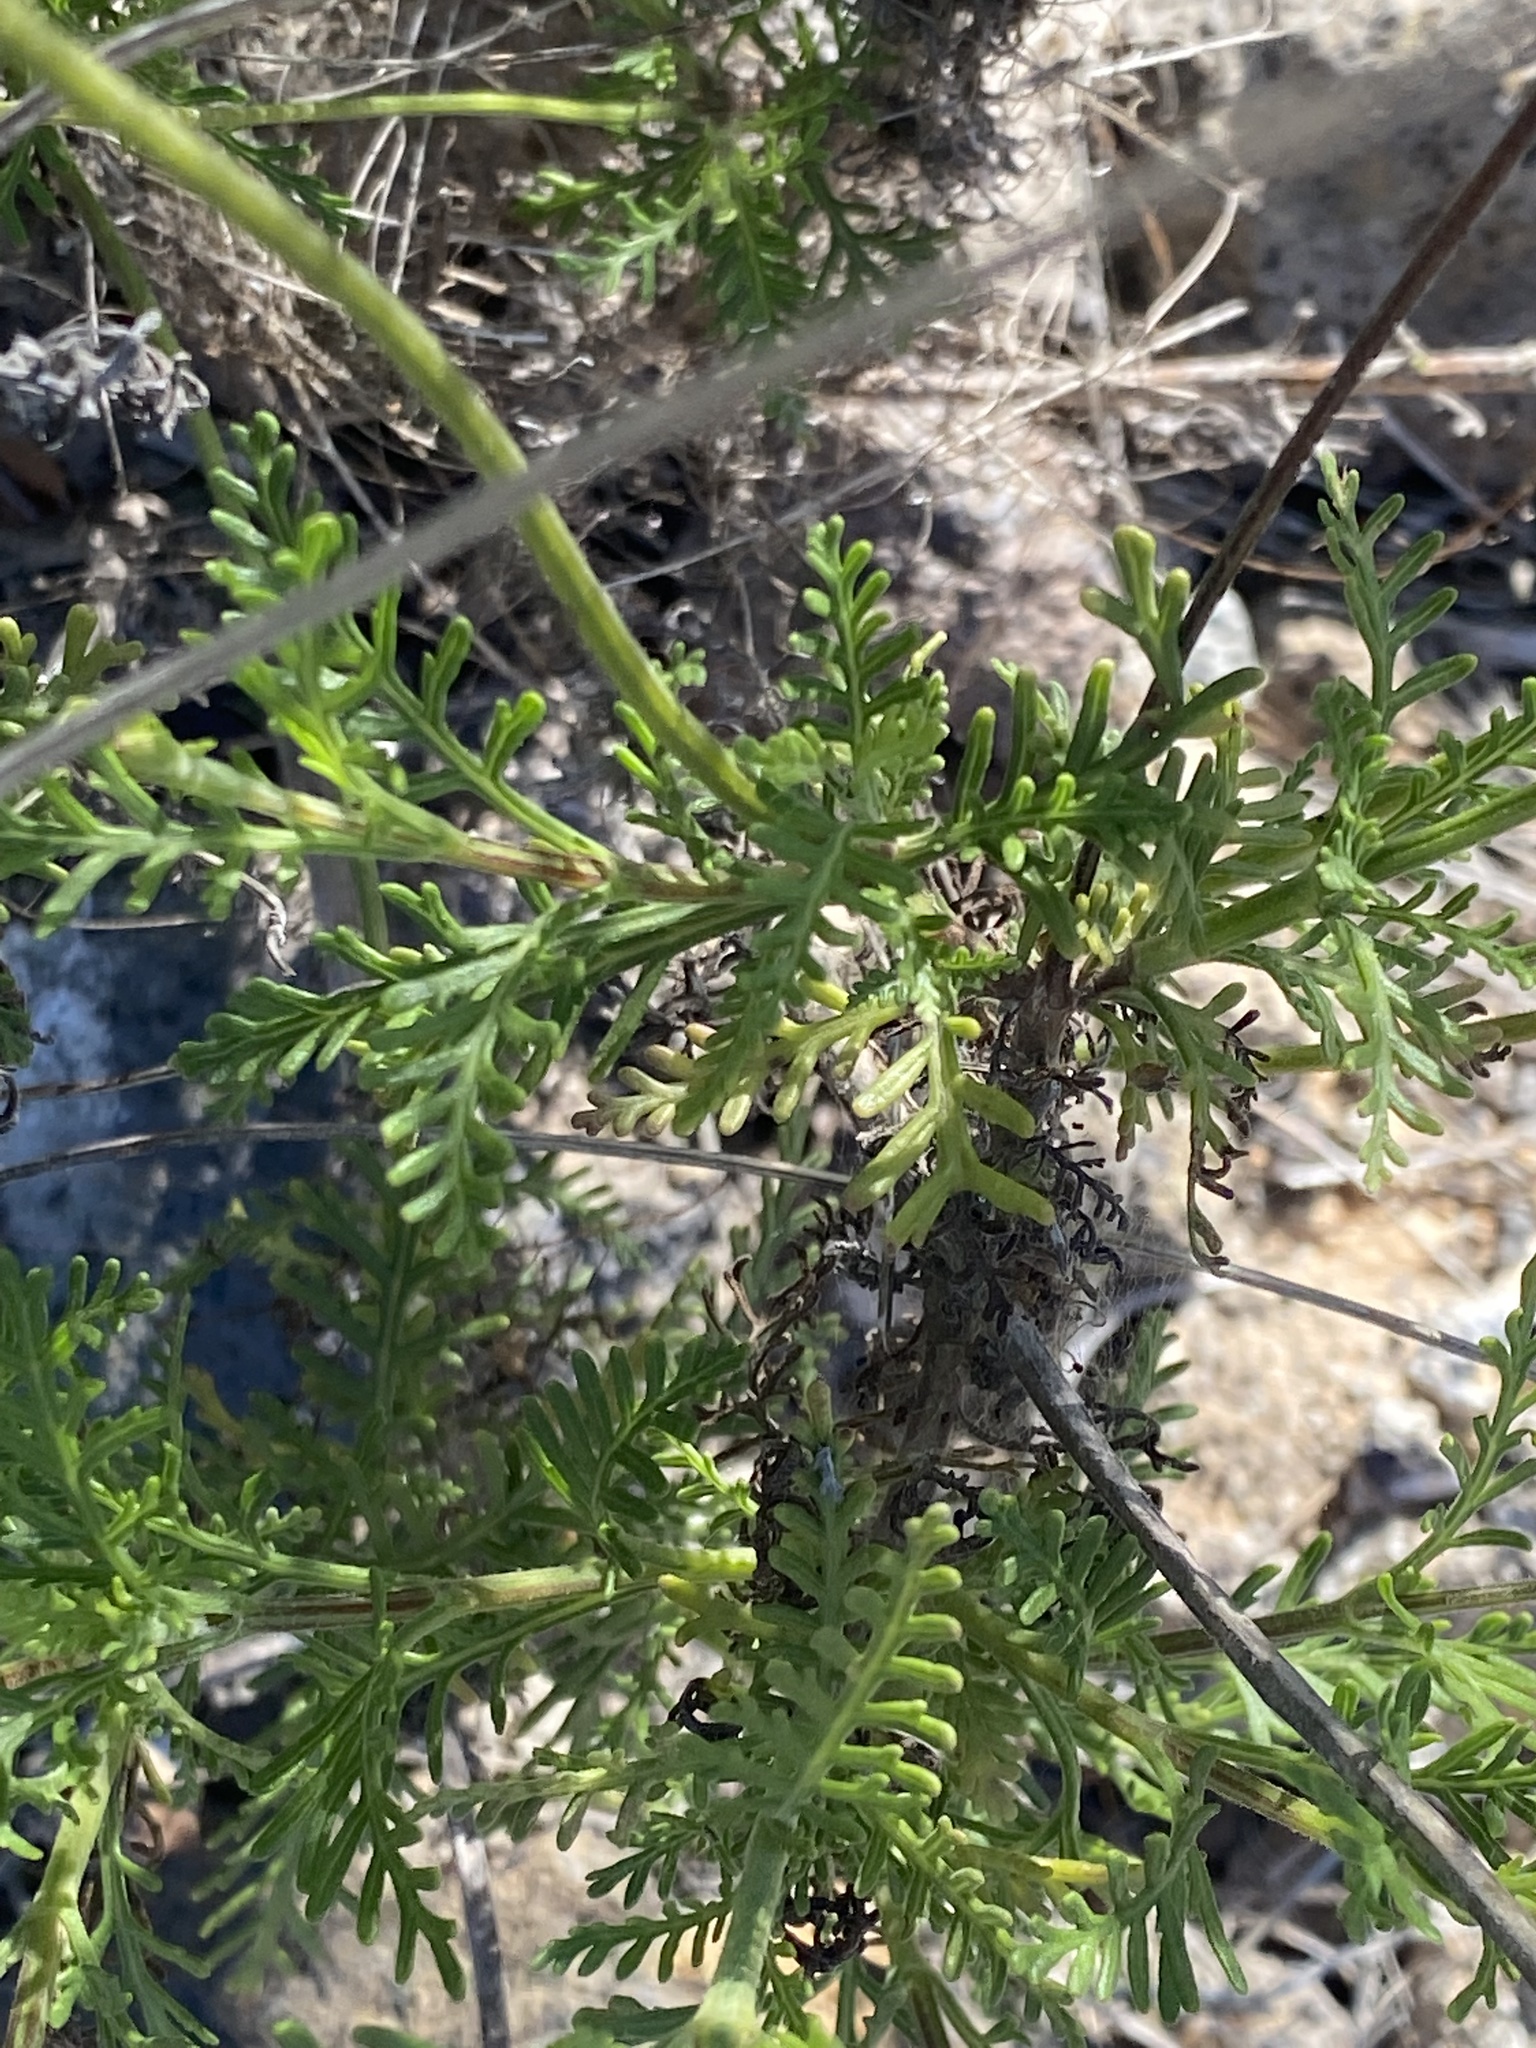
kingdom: Plantae
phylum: Tracheophyta
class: Magnoliopsida
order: Lamiales
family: Lamiaceae
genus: Lavandula
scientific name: Lavandula canariensis
